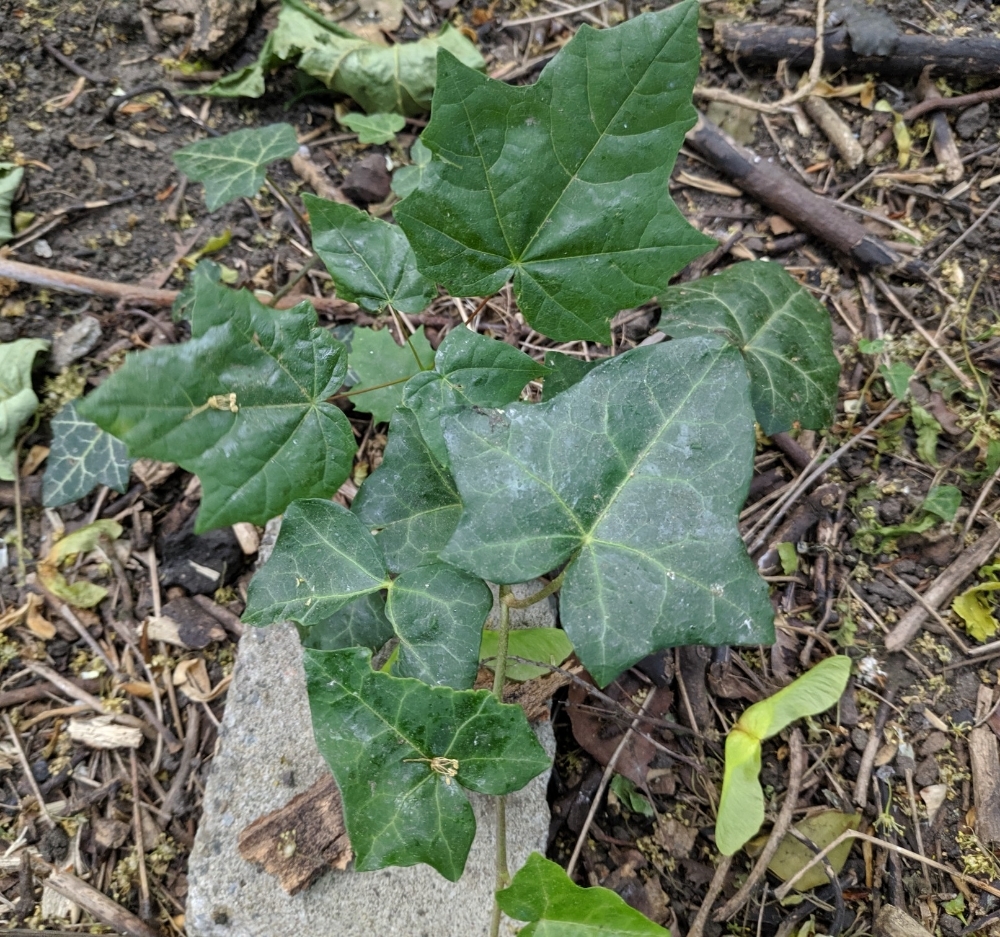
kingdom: Plantae
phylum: Tracheophyta
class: Magnoliopsida
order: Apiales
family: Araliaceae
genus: Hedera
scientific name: Hedera helix
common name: Ivy
